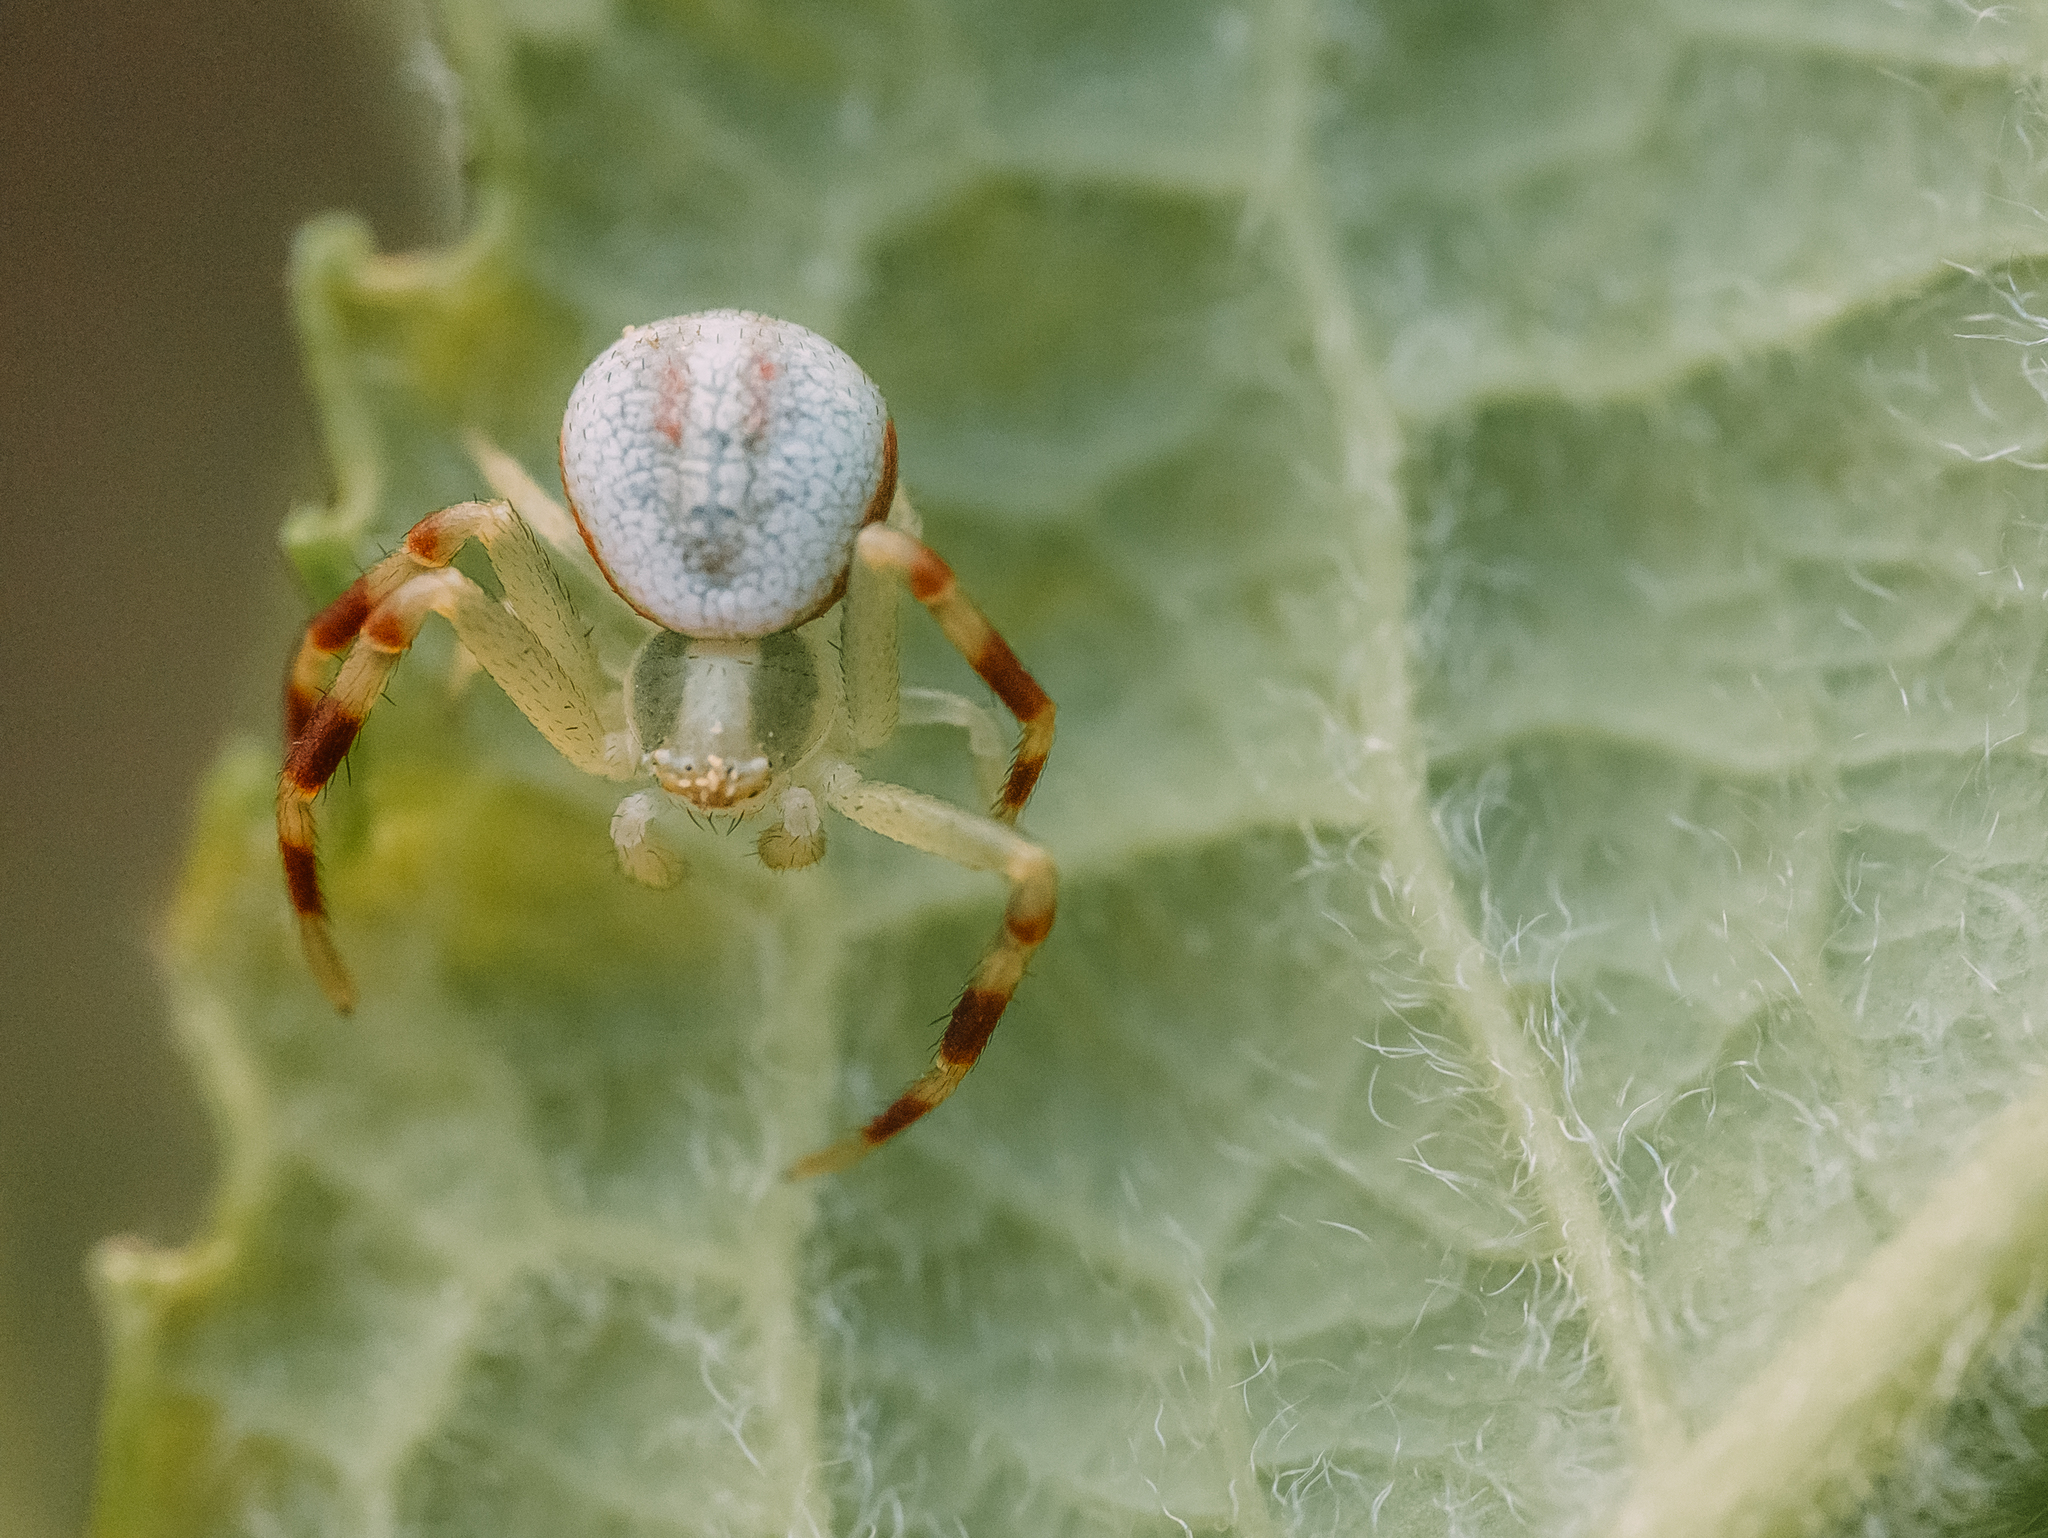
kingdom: Animalia
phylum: Arthropoda
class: Arachnida
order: Araneae
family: Thomisidae
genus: Misumena
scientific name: Misumena vatia
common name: Goldenrod crab spider
